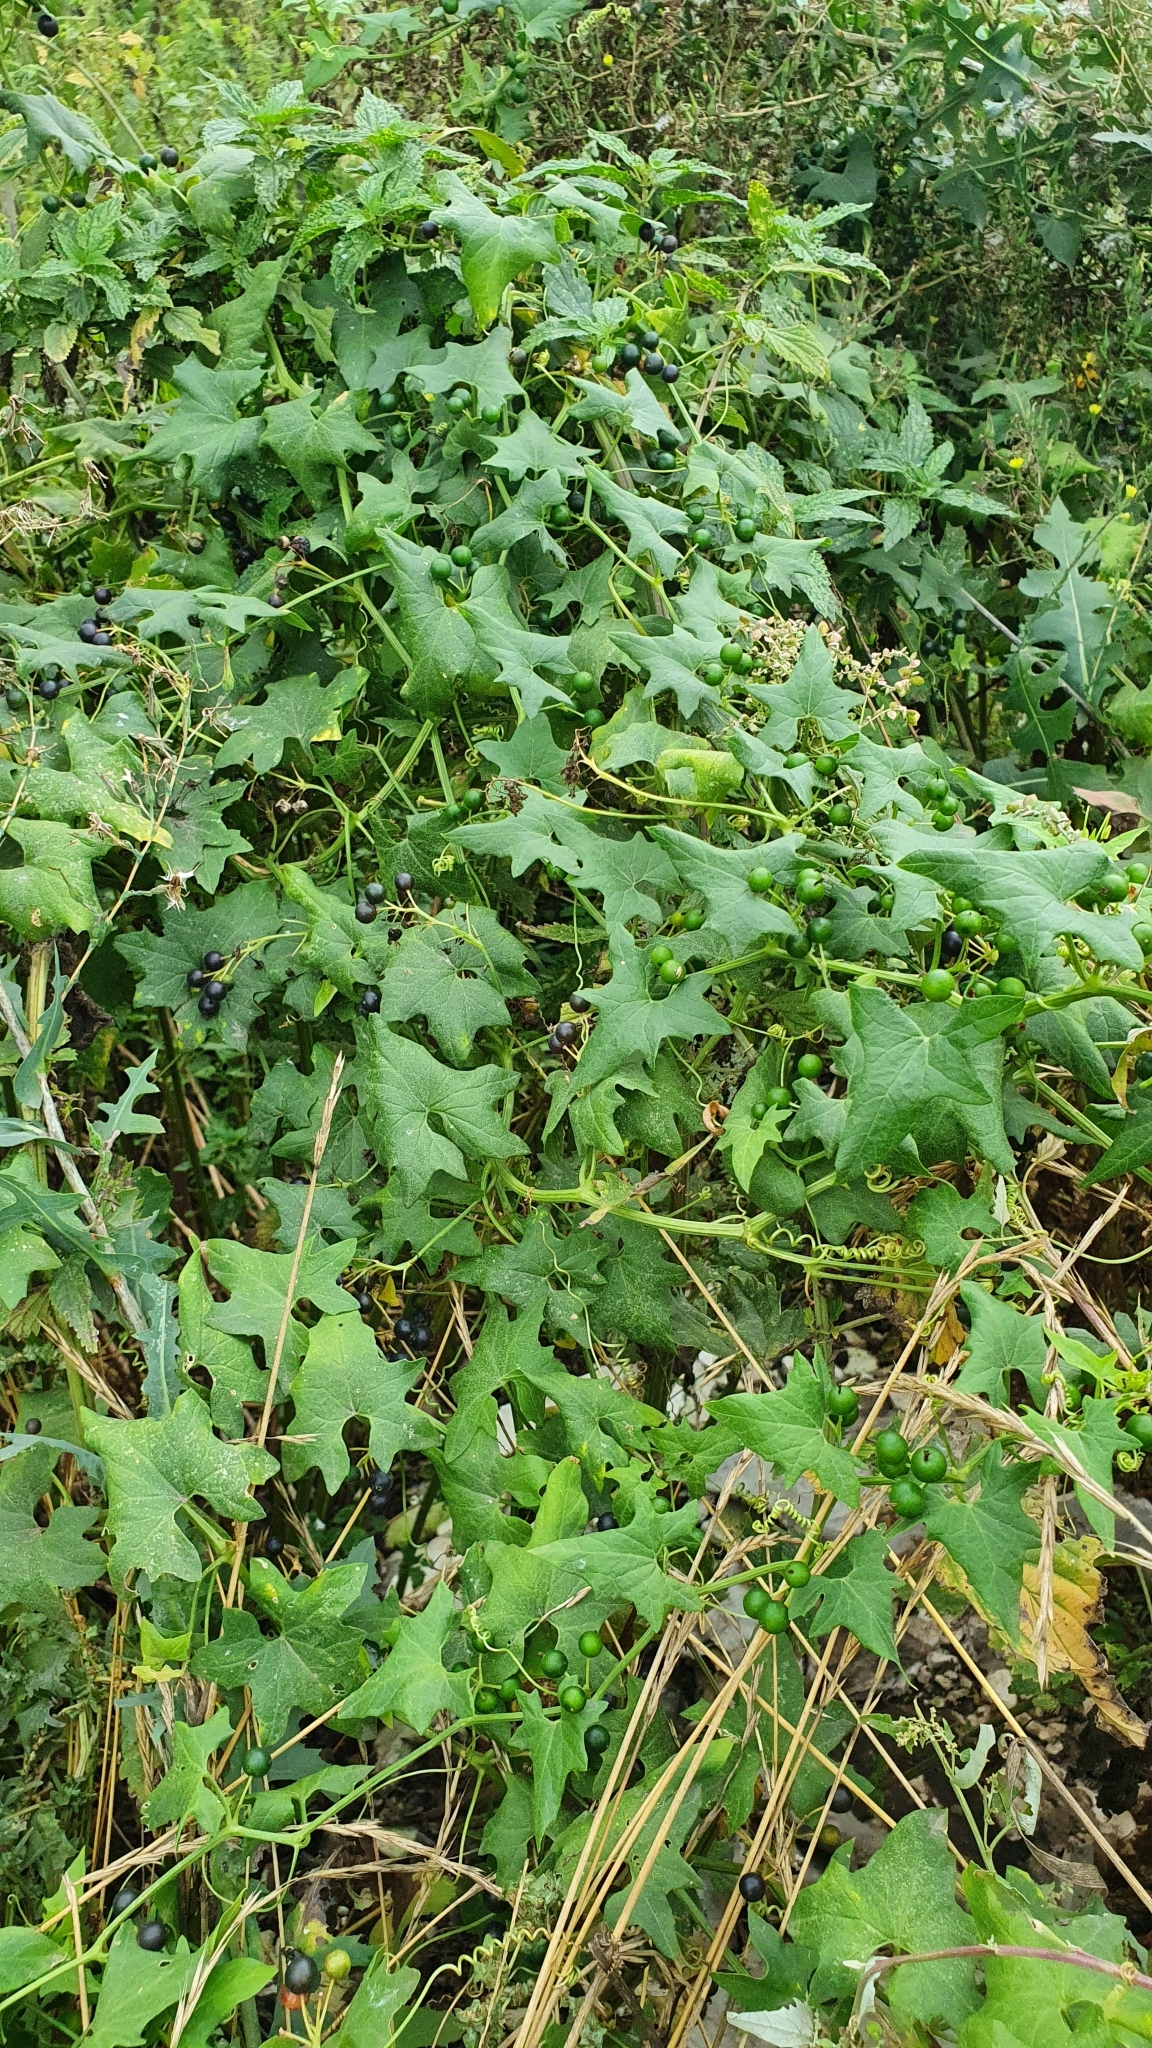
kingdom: Plantae
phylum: Tracheophyta
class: Magnoliopsida
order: Cucurbitales
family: Cucurbitaceae
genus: Bryonia
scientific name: Bryonia alba
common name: White bryony
